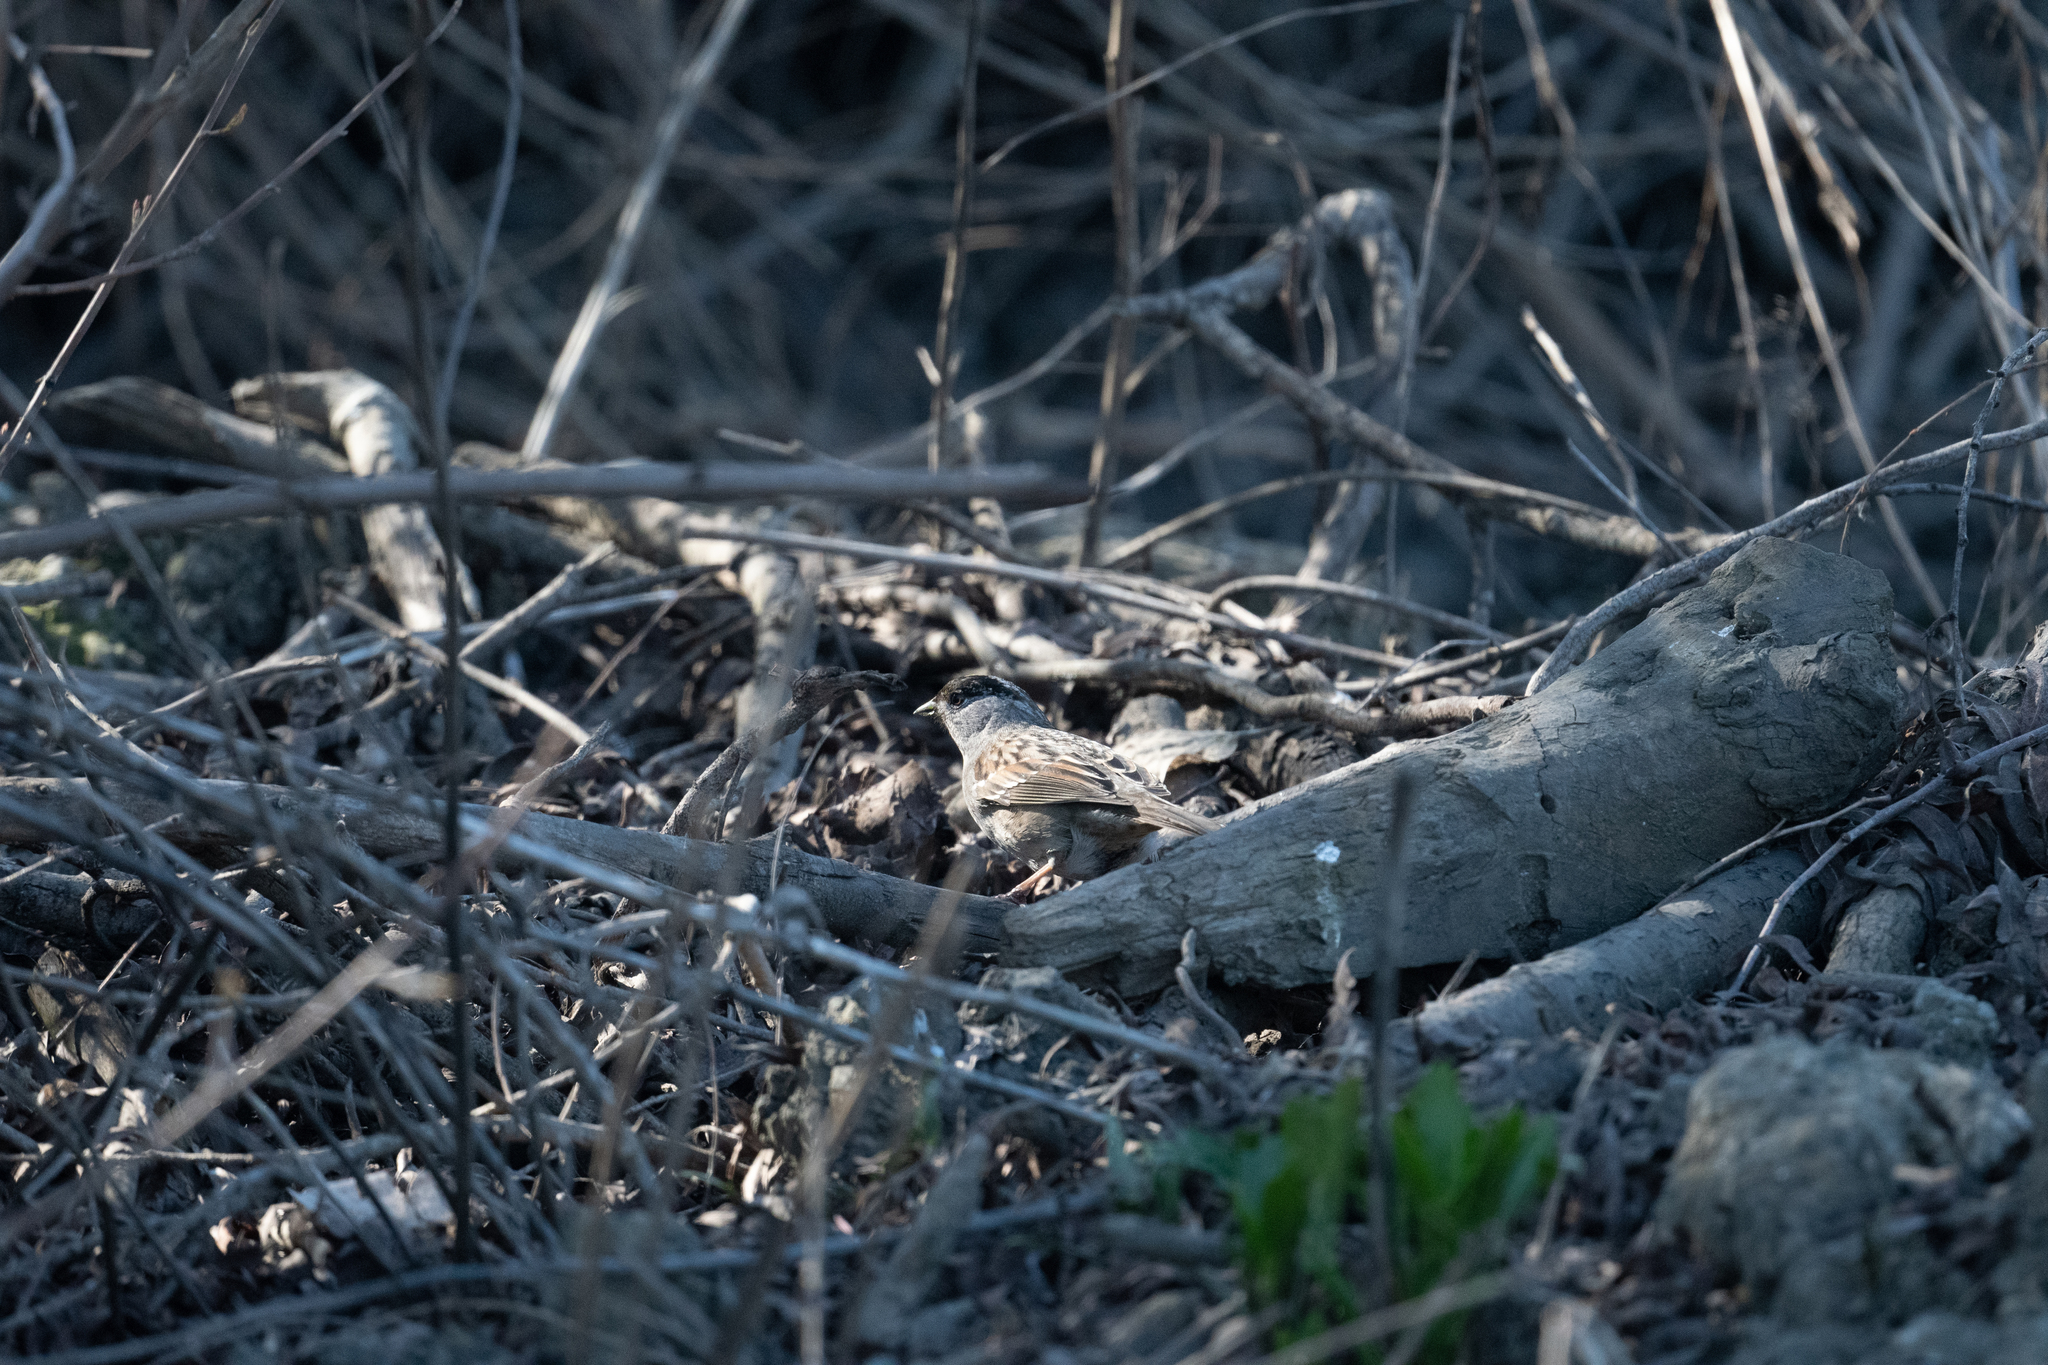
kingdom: Animalia
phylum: Chordata
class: Aves
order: Passeriformes
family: Passerellidae
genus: Zonotrichia
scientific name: Zonotrichia atricapilla
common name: Golden-crowned sparrow
